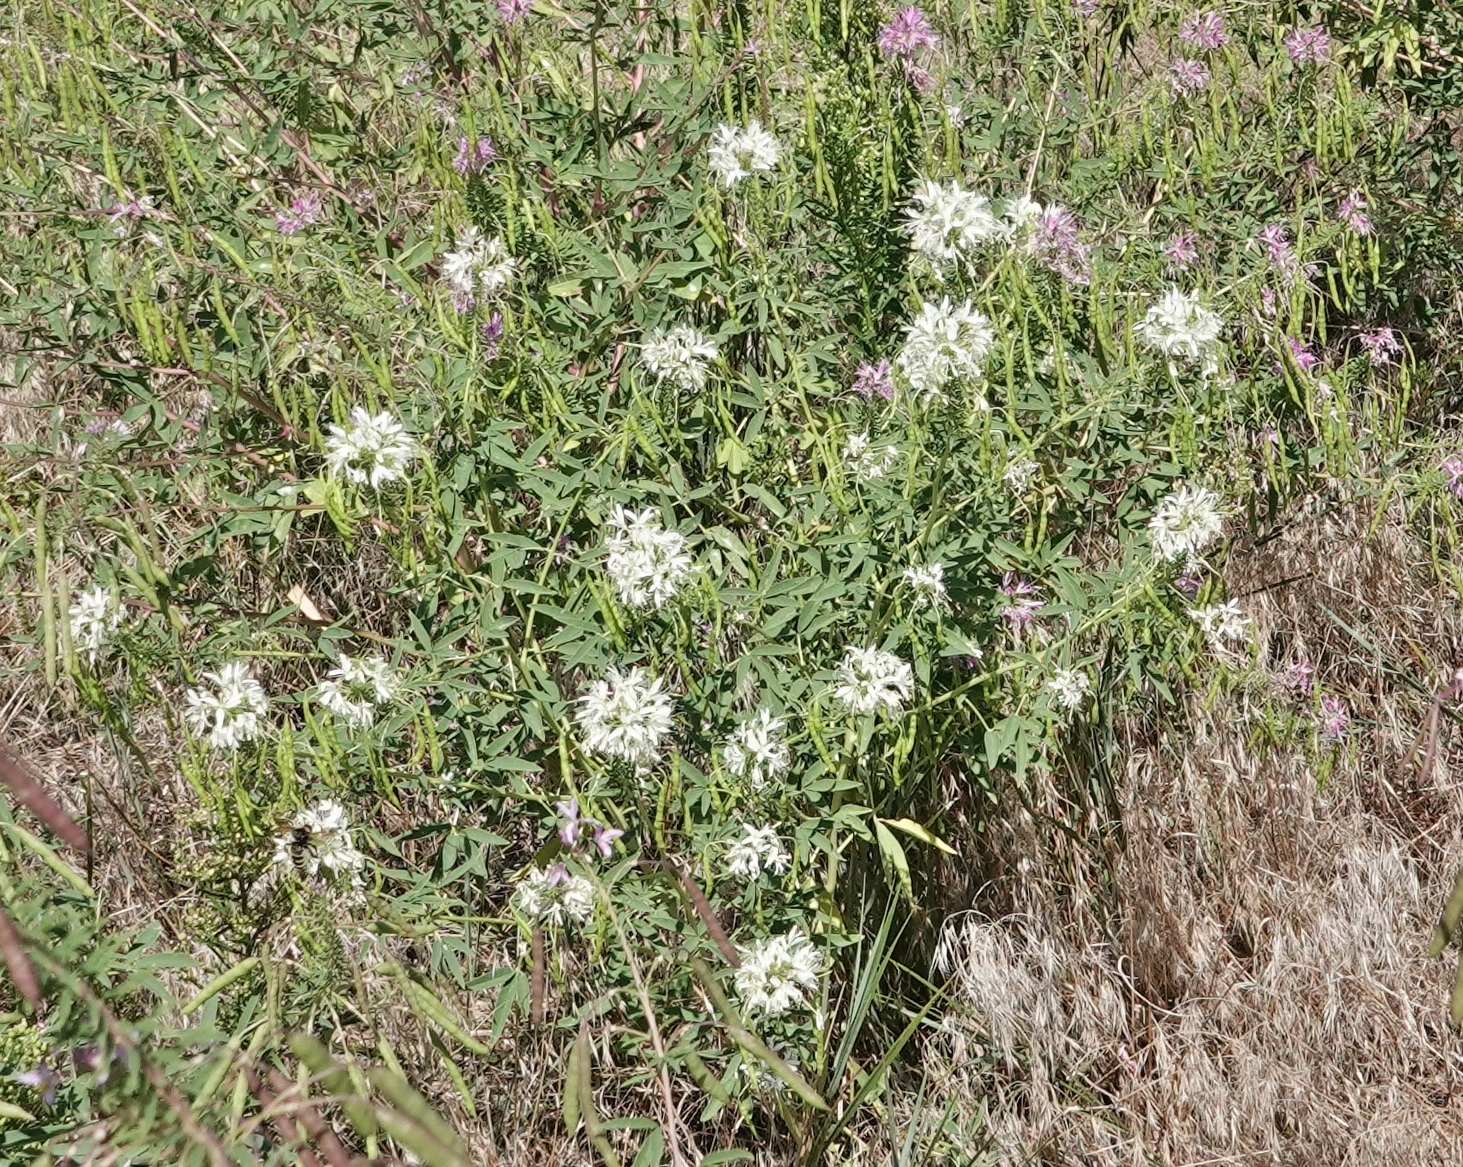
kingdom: Plantae
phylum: Tracheophyta
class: Magnoliopsida
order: Brassicales
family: Cleomaceae
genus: Cleomella
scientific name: Cleomella serrulata
